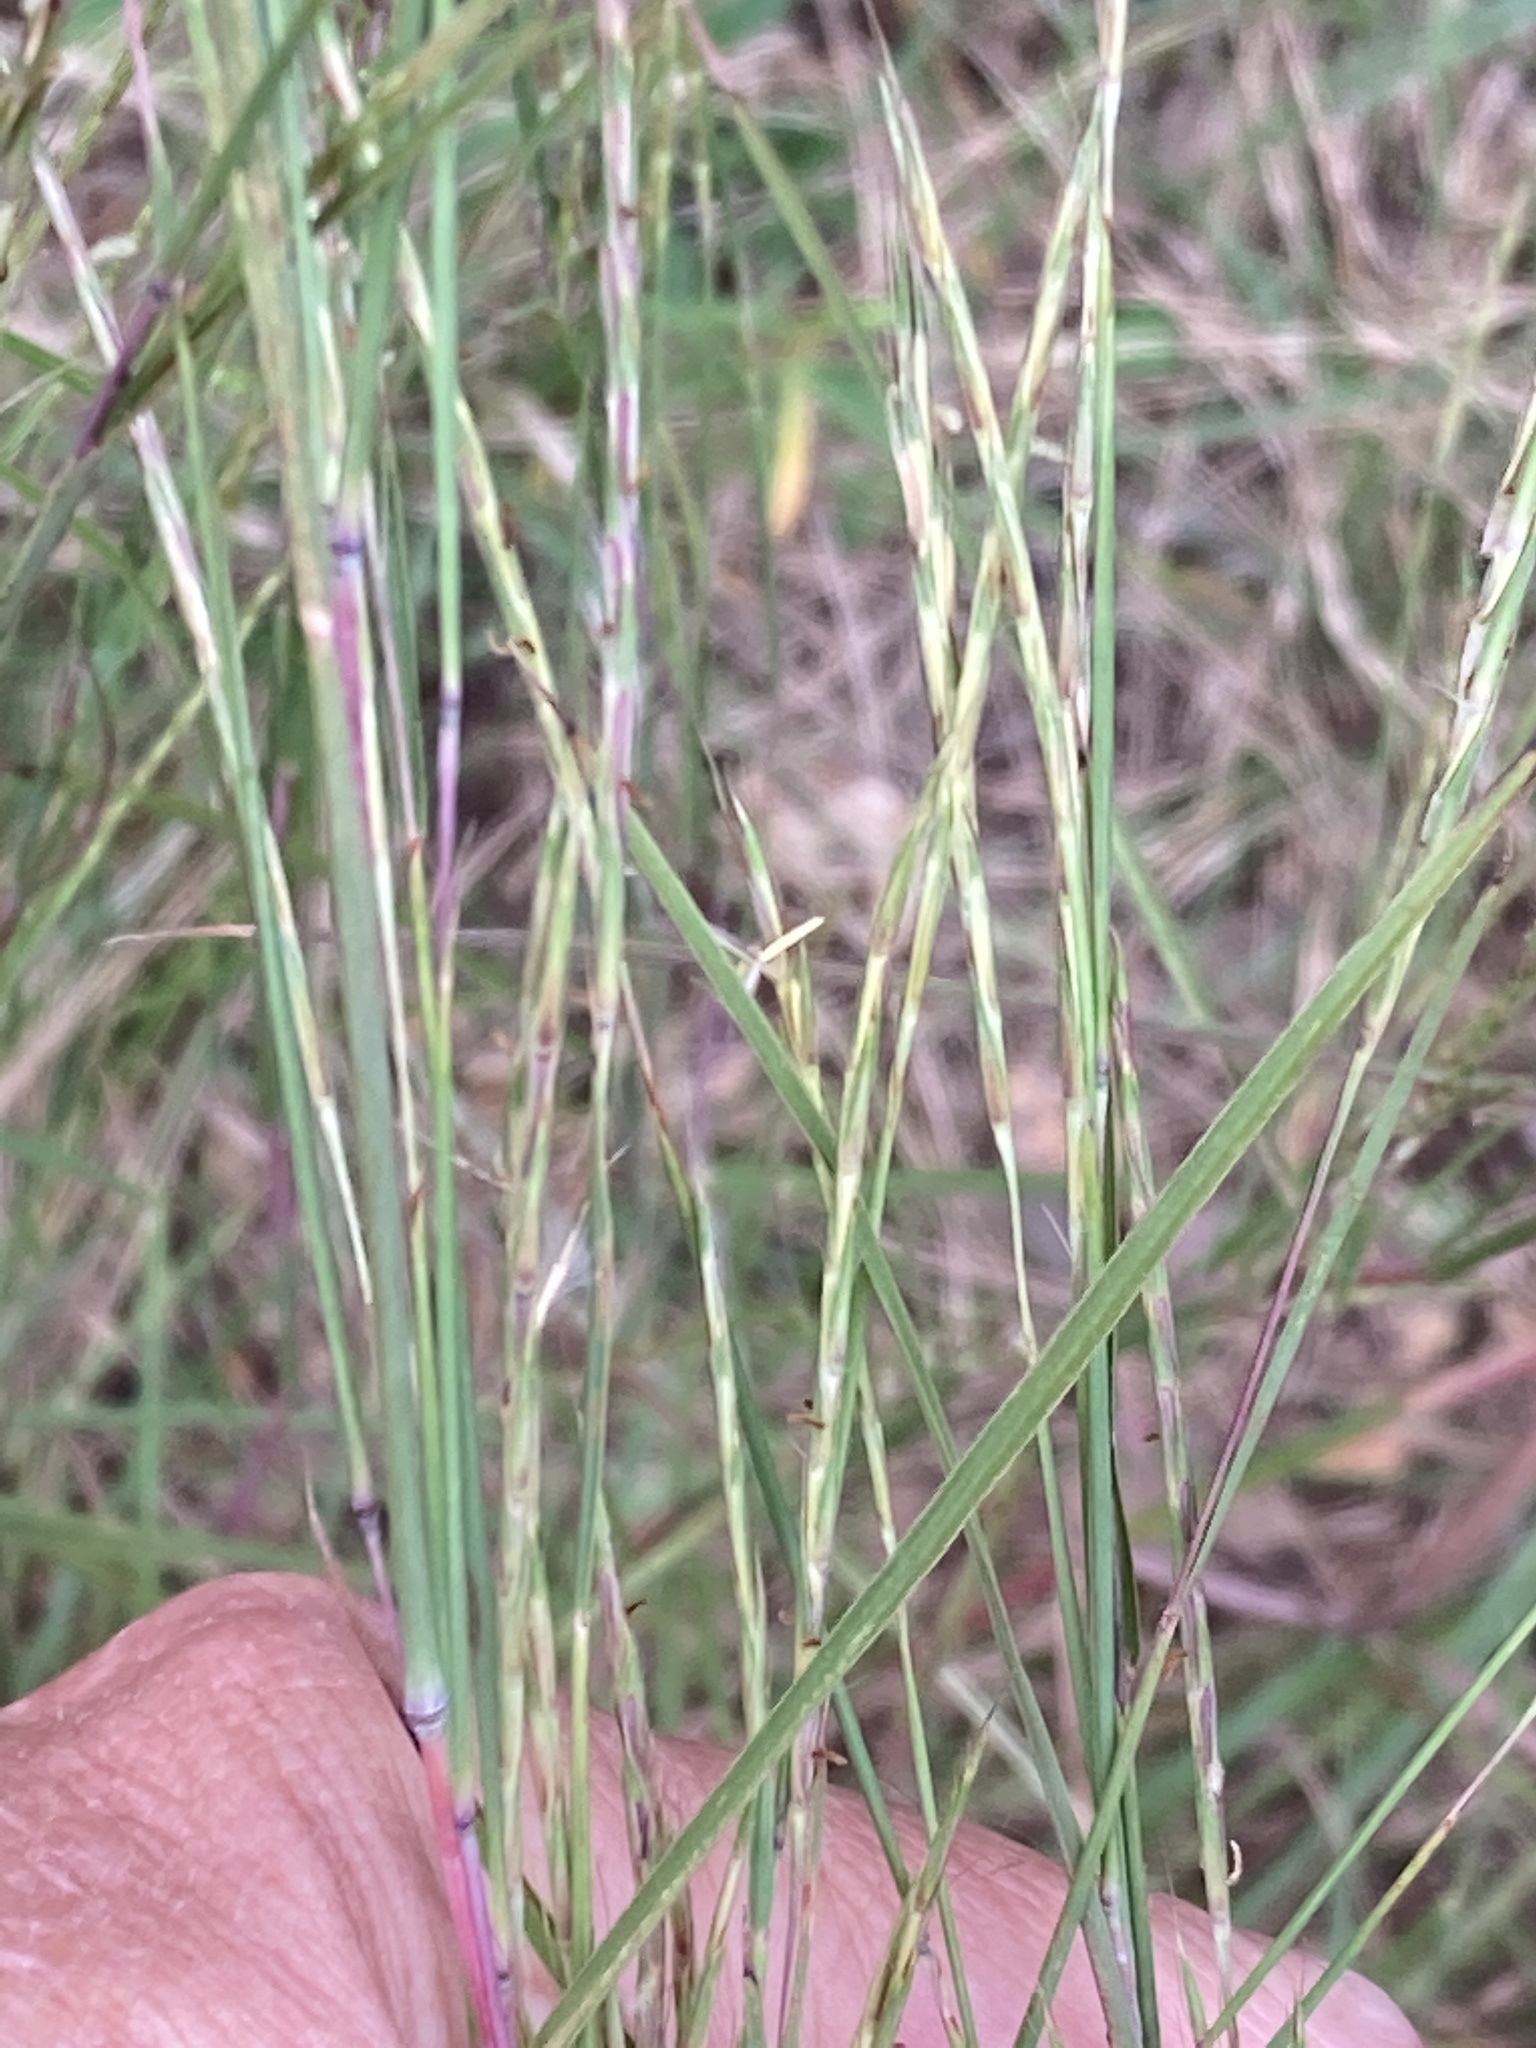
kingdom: Plantae
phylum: Tracheophyta
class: Liliopsida
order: Poales
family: Poaceae
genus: Schizachyrium
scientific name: Schizachyrium scoparium
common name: Little bluestem
